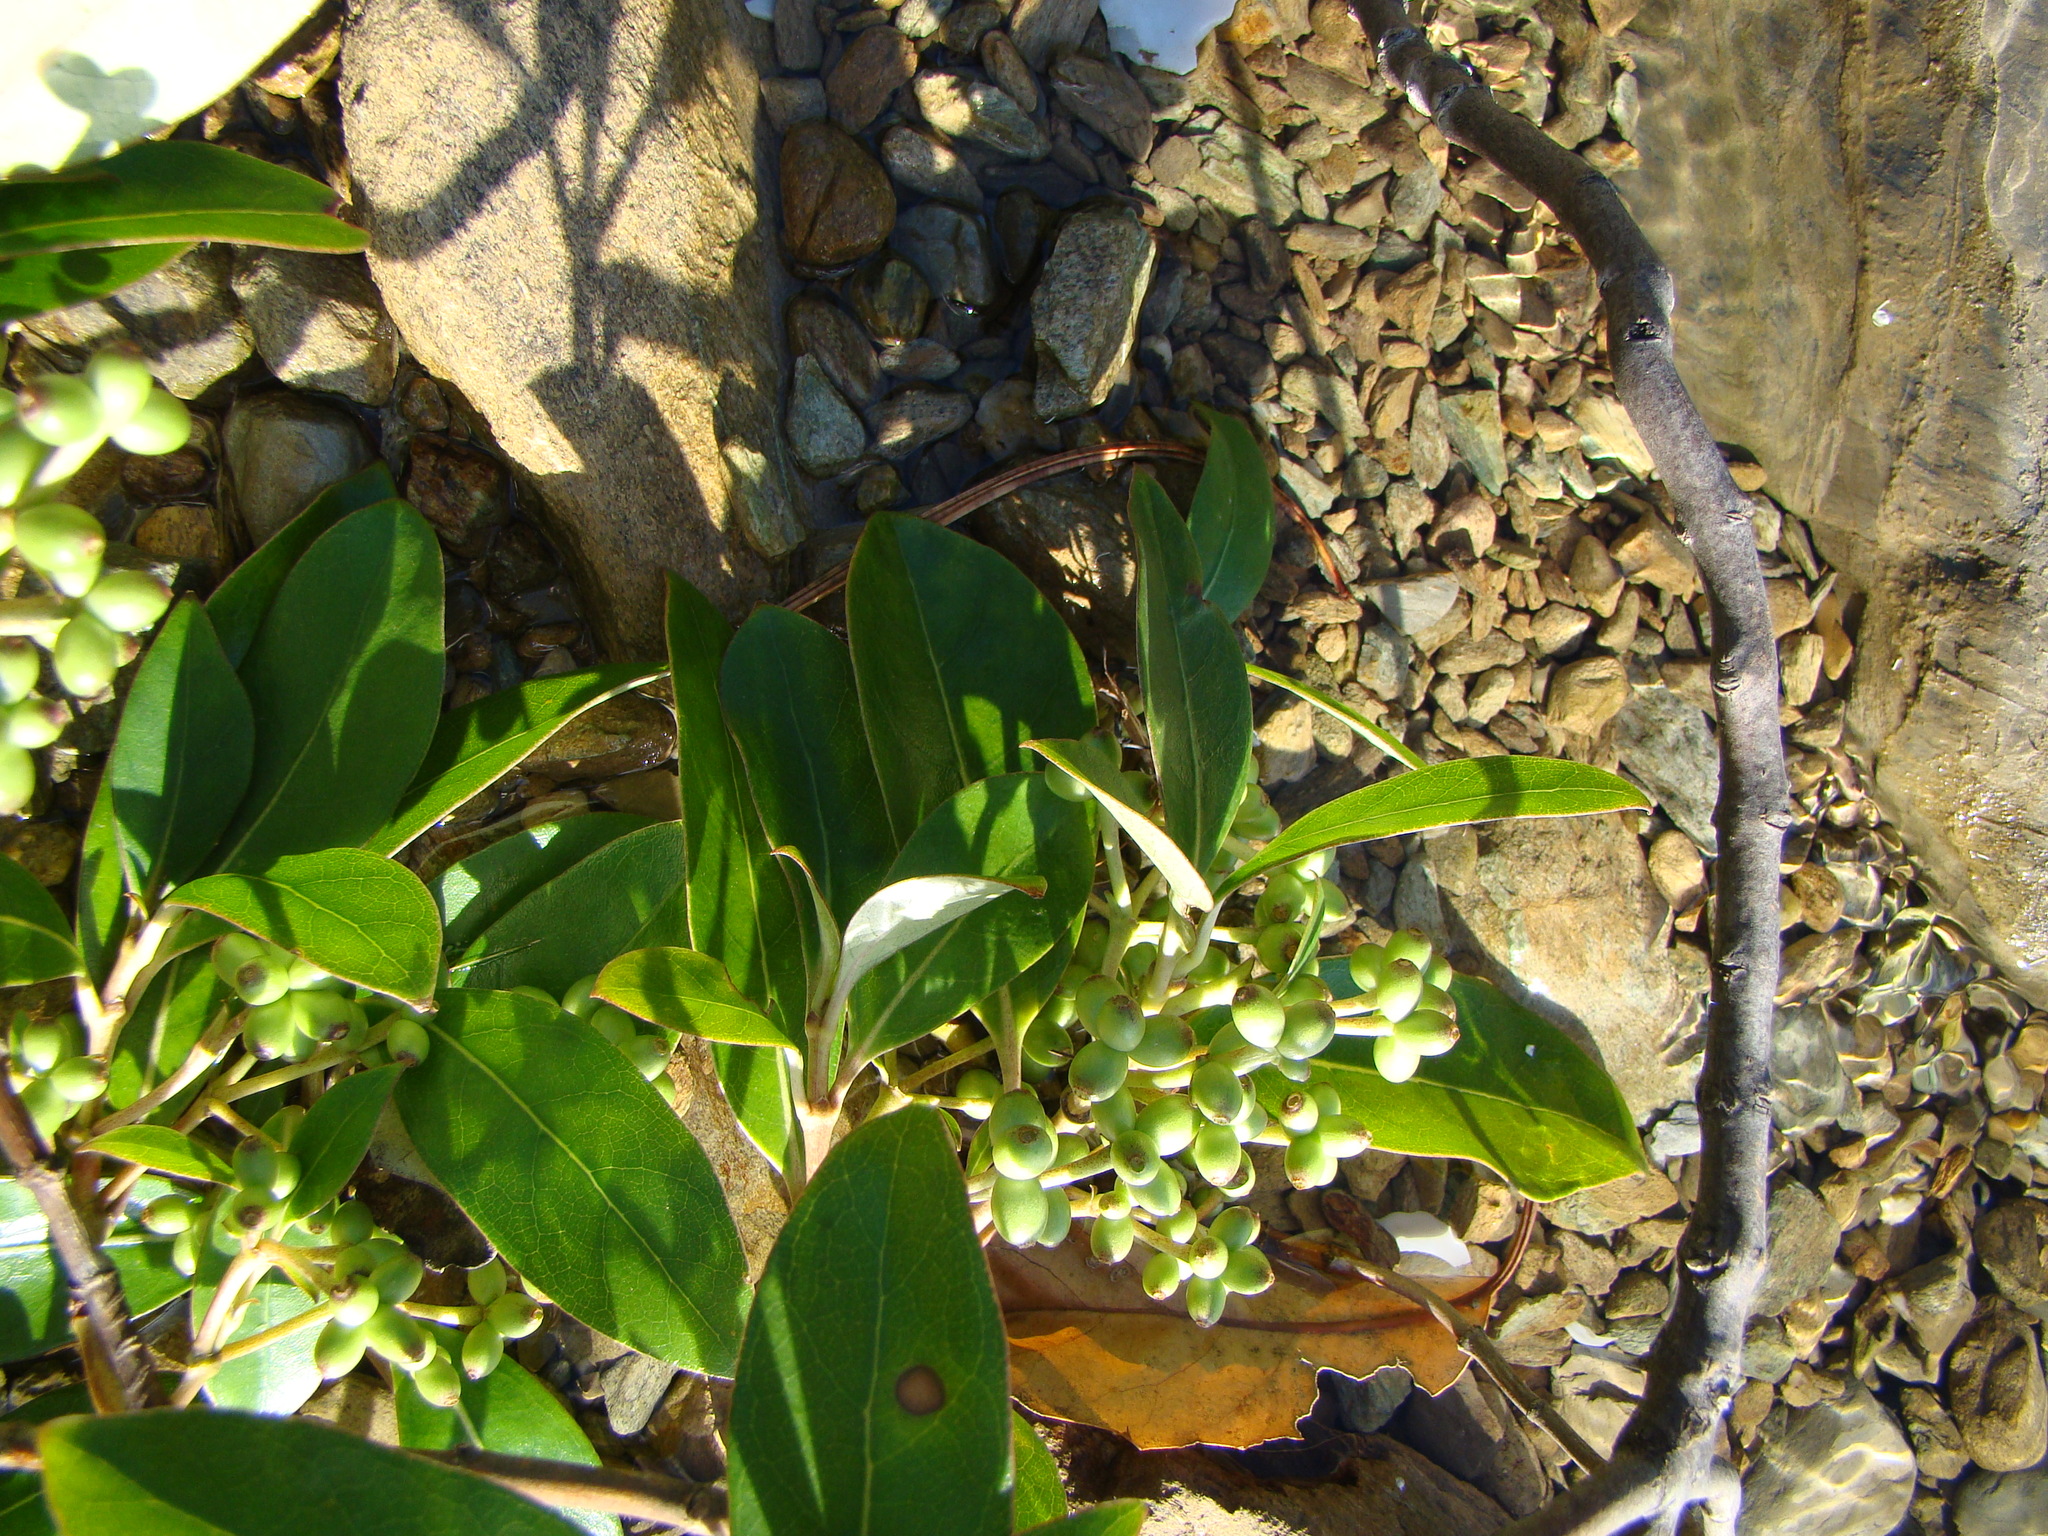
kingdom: Plantae
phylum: Tracheophyta
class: Magnoliopsida
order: Gentianales
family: Rubiaceae
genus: Coprosma
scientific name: Coprosma lucida
